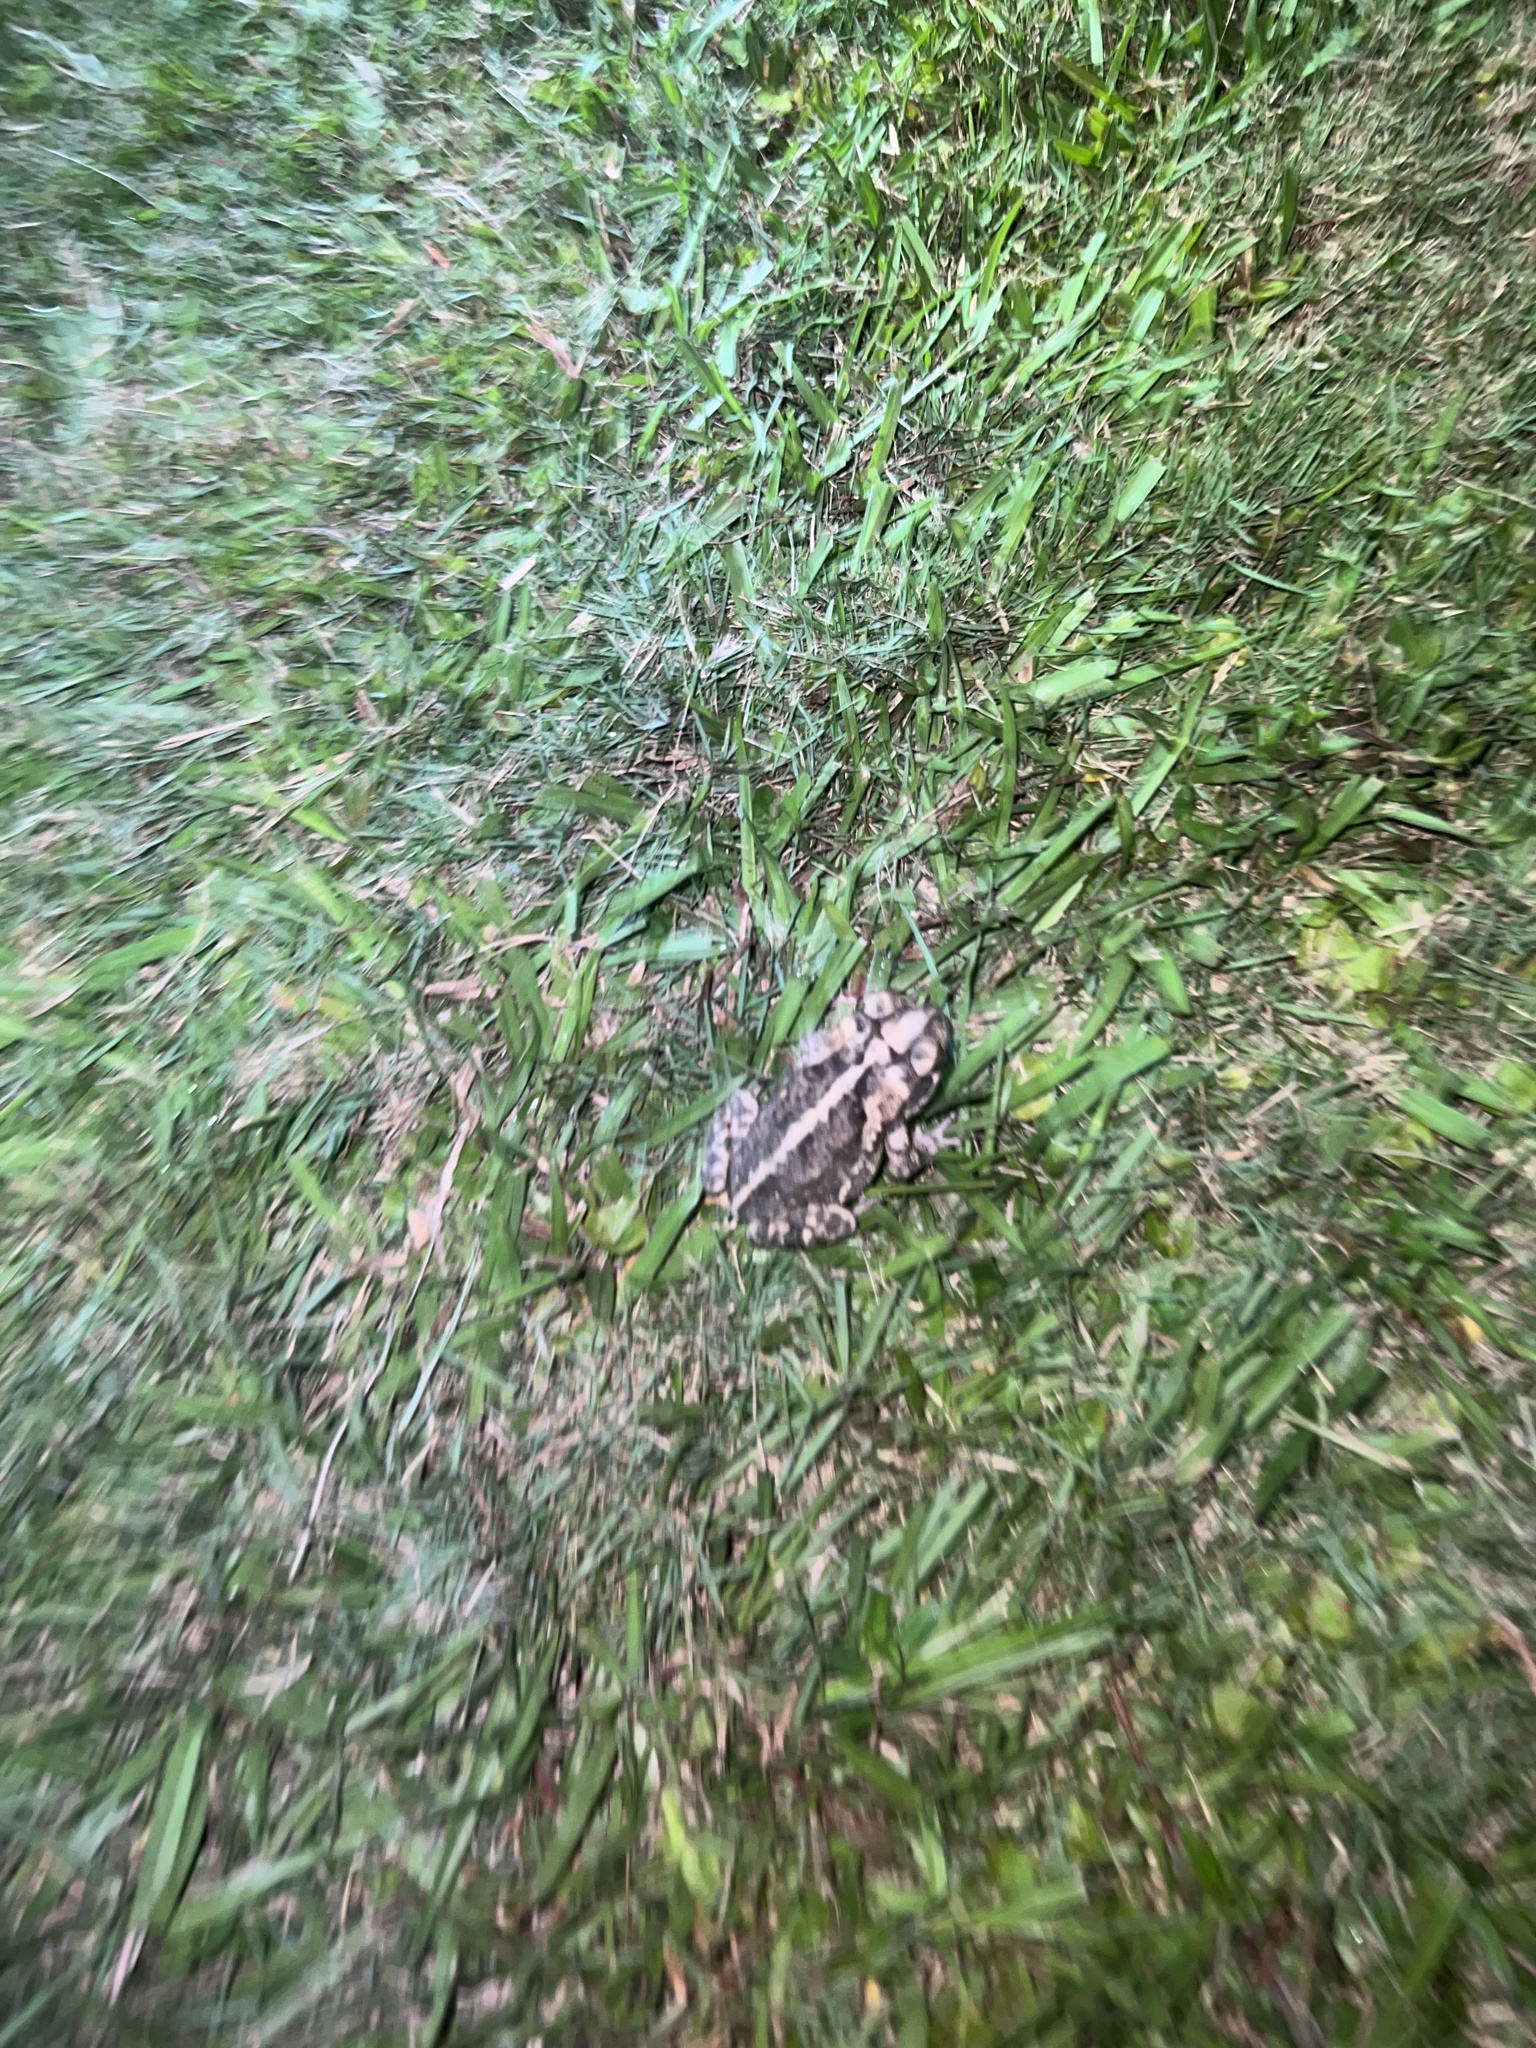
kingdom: Animalia
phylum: Chordata
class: Amphibia
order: Anura
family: Bufonidae
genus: Incilius
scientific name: Incilius nebulifer
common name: Gulf coast toad
